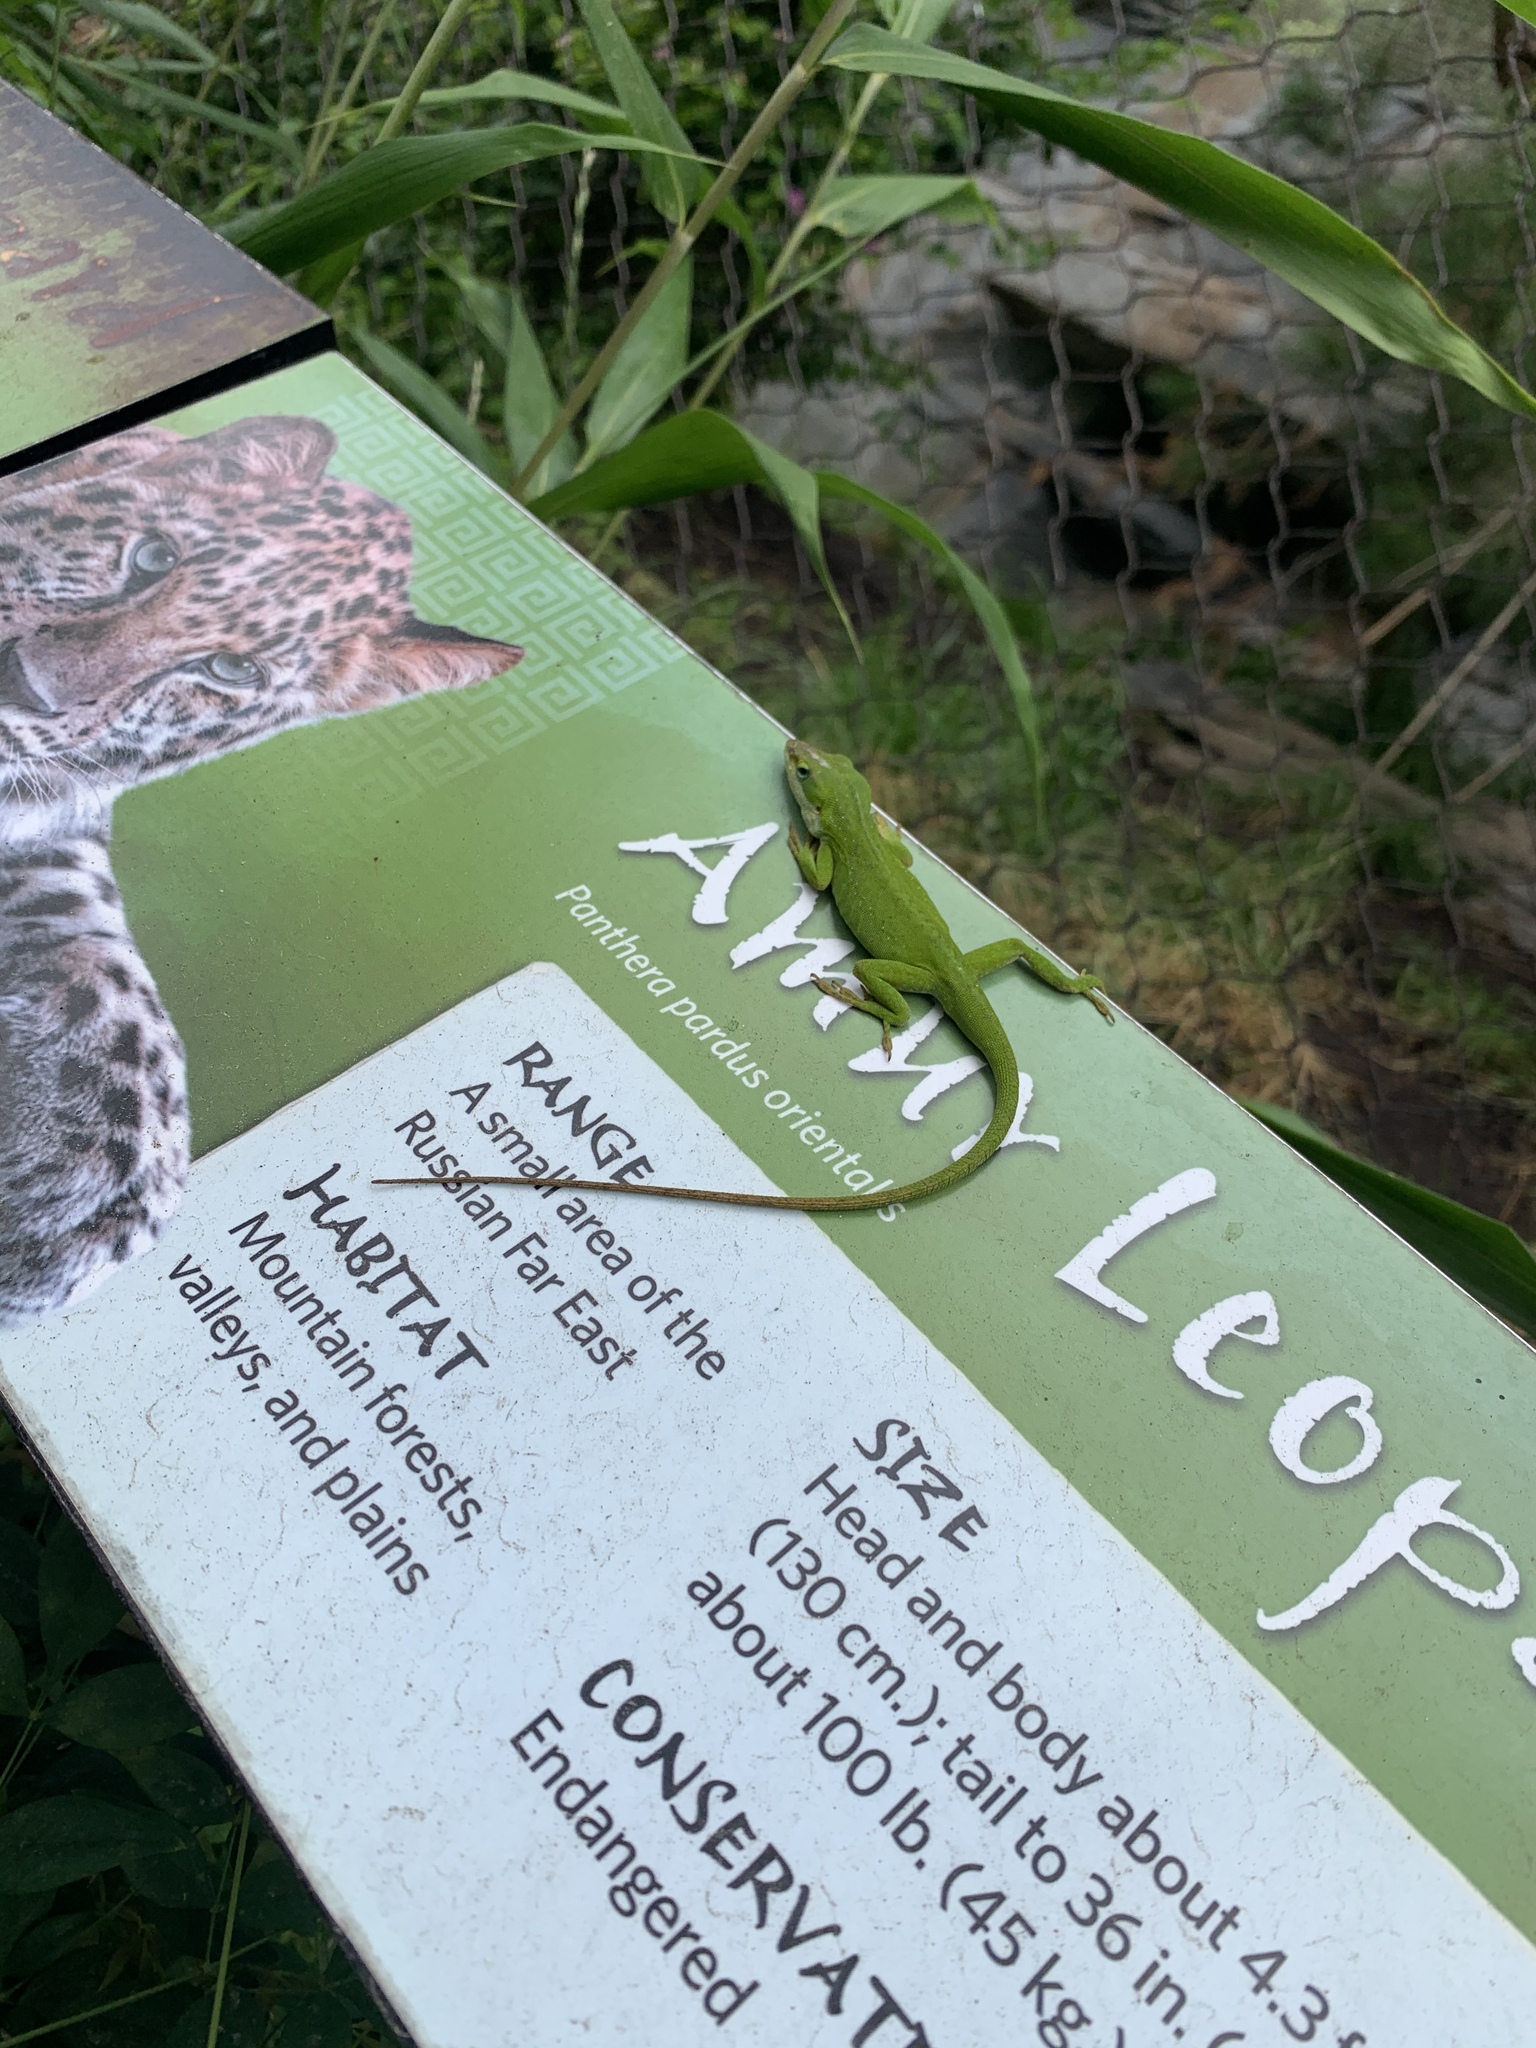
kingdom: Animalia
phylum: Chordata
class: Squamata
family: Dactyloidae
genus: Anolis
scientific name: Anolis carolinensis
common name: Green anole
